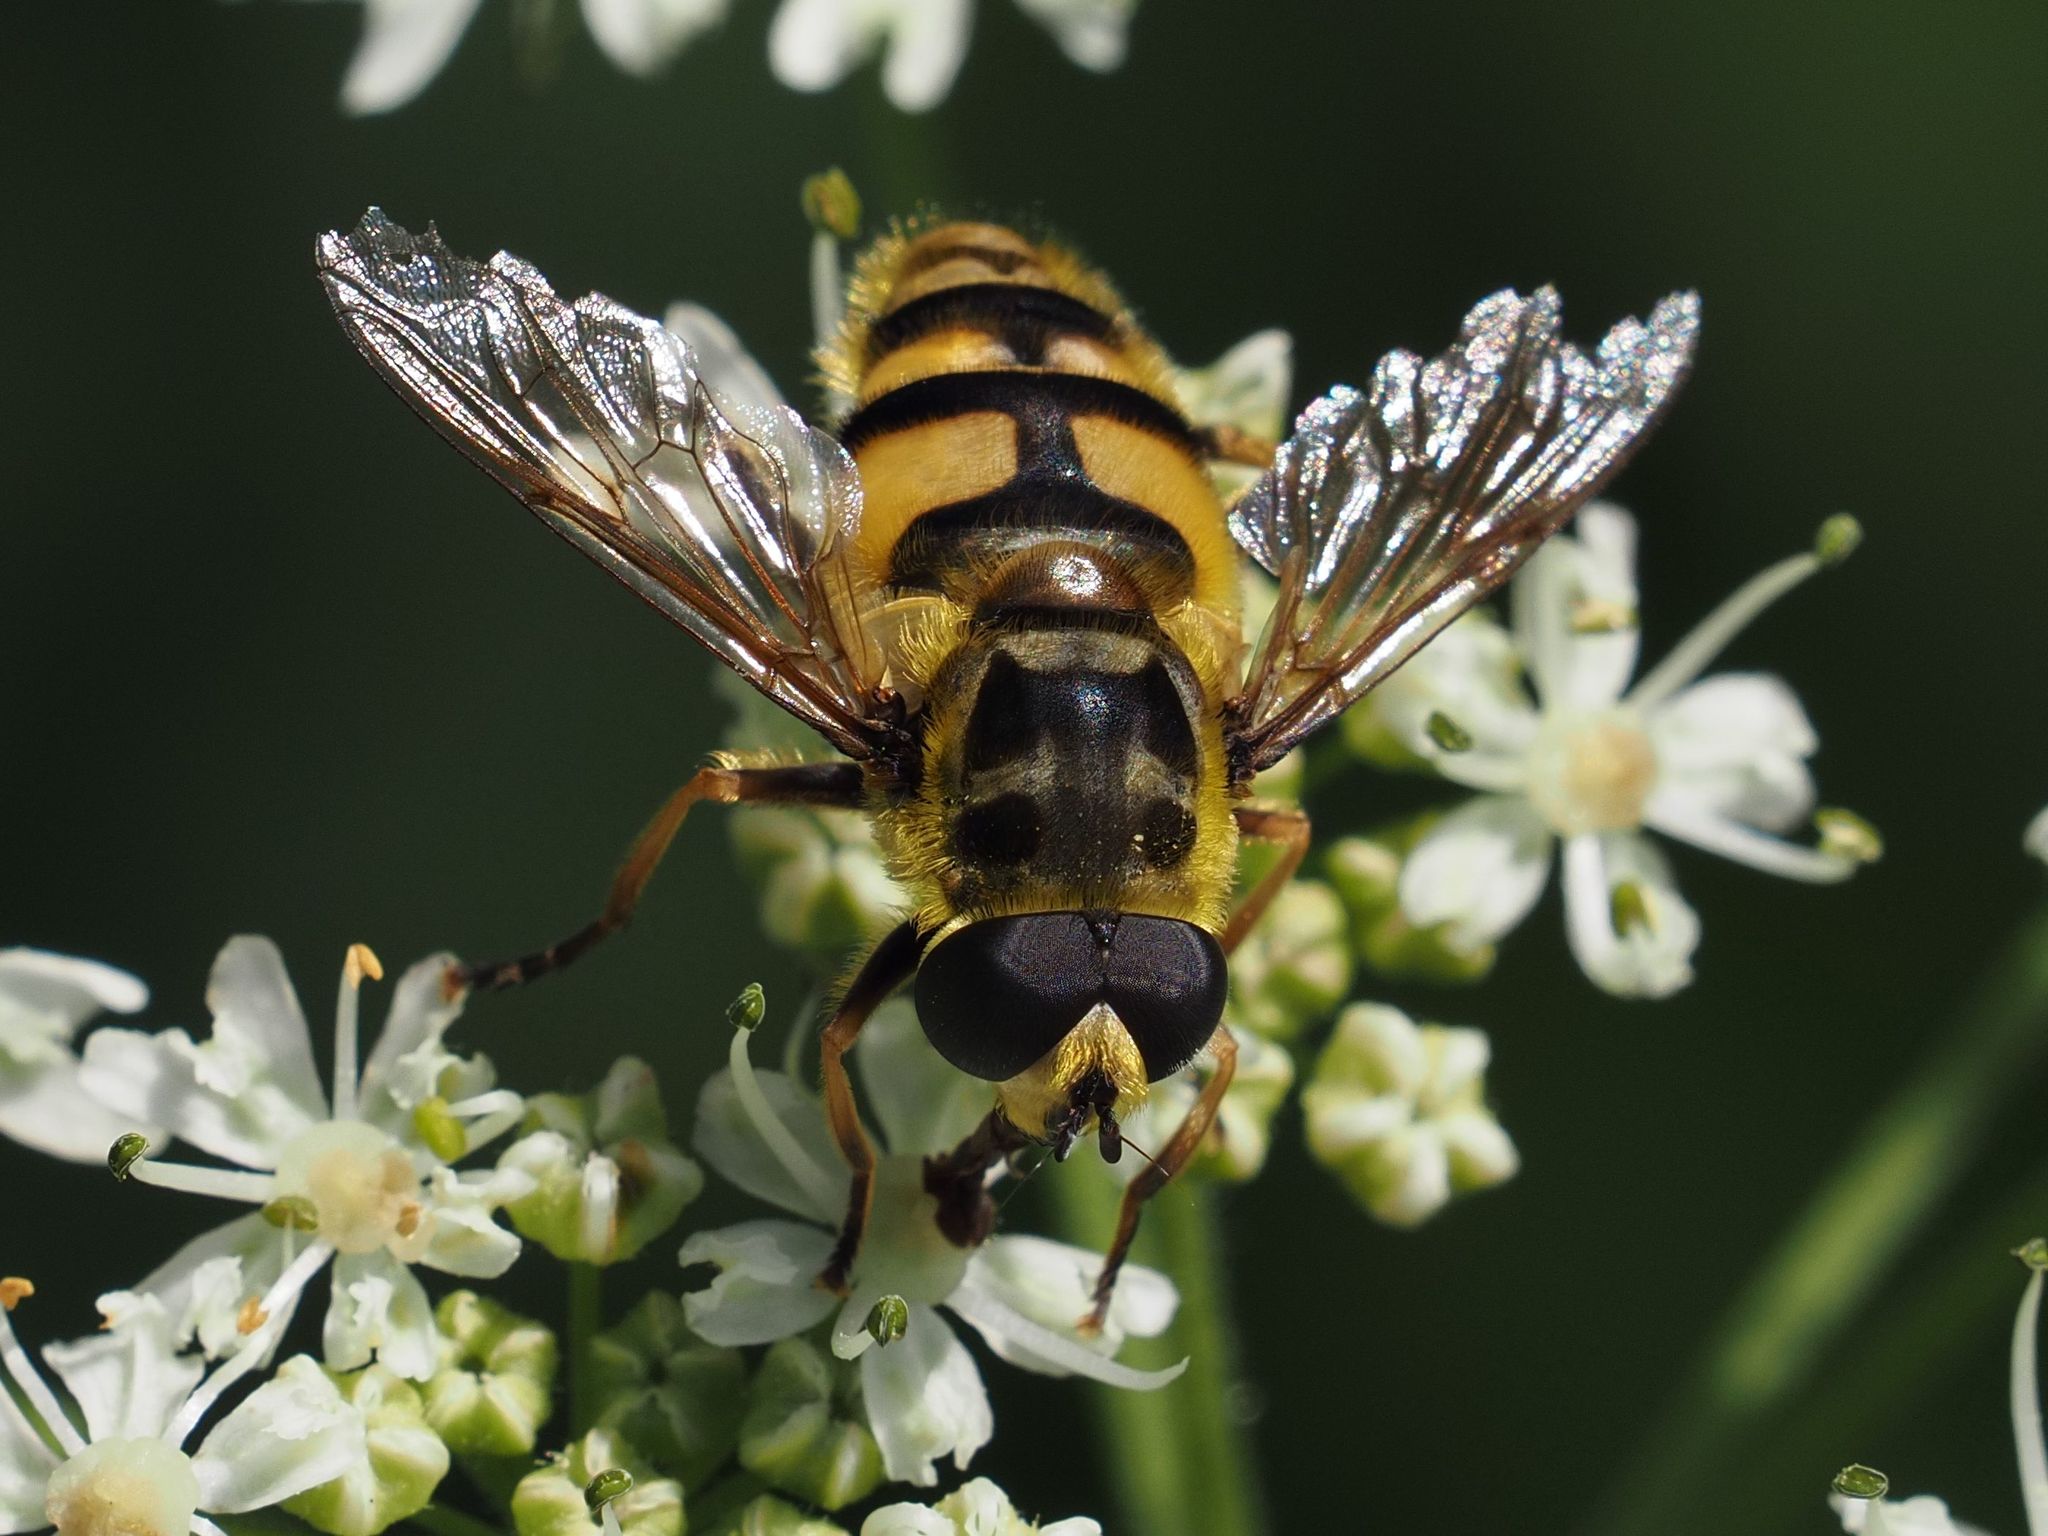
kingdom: Animalia
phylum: Arthropoda
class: Insecta
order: Diptera
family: Syrphidae
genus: Myathropa
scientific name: Myathropa florea
